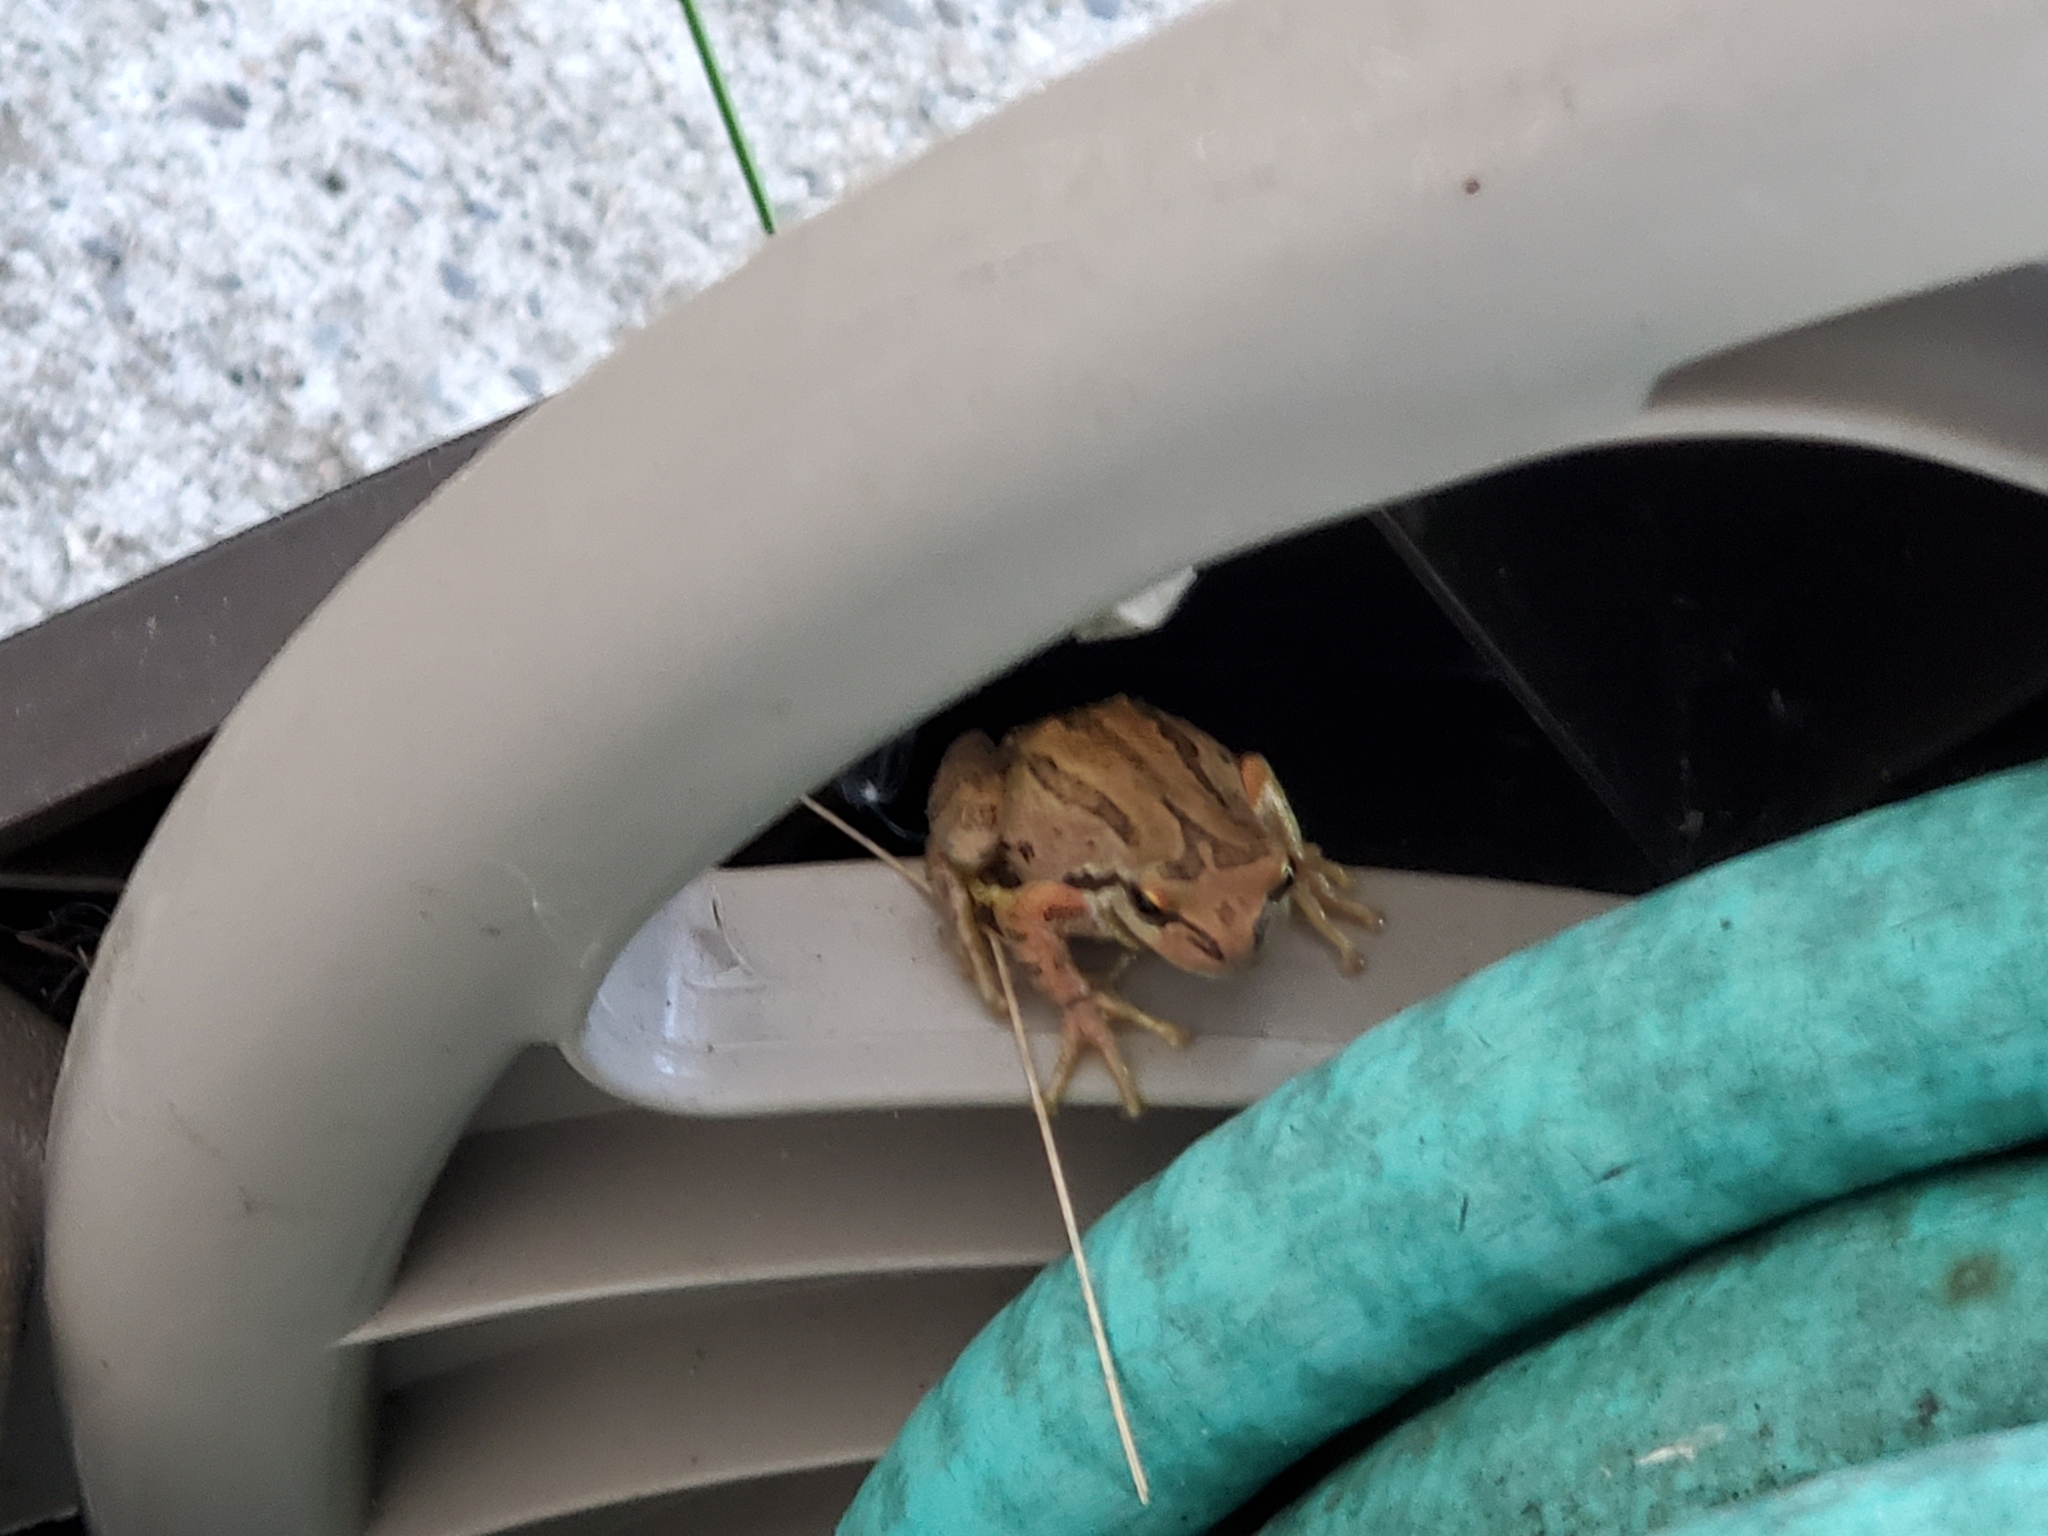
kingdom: Animalia
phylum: Chordata
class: Amphibia
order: Anura
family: Hylidae
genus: Pseudacris
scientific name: Pseudacris regilla
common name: Pacific chorus frog
